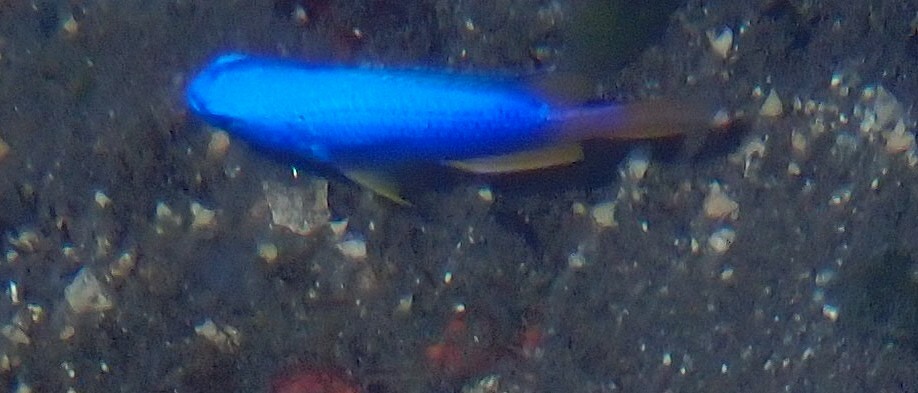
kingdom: Animalia
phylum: Chordata
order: Perciformes
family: Pomacentridae
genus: Pomacentrus
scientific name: Pomacentrus coelestis
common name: Neon damsel
